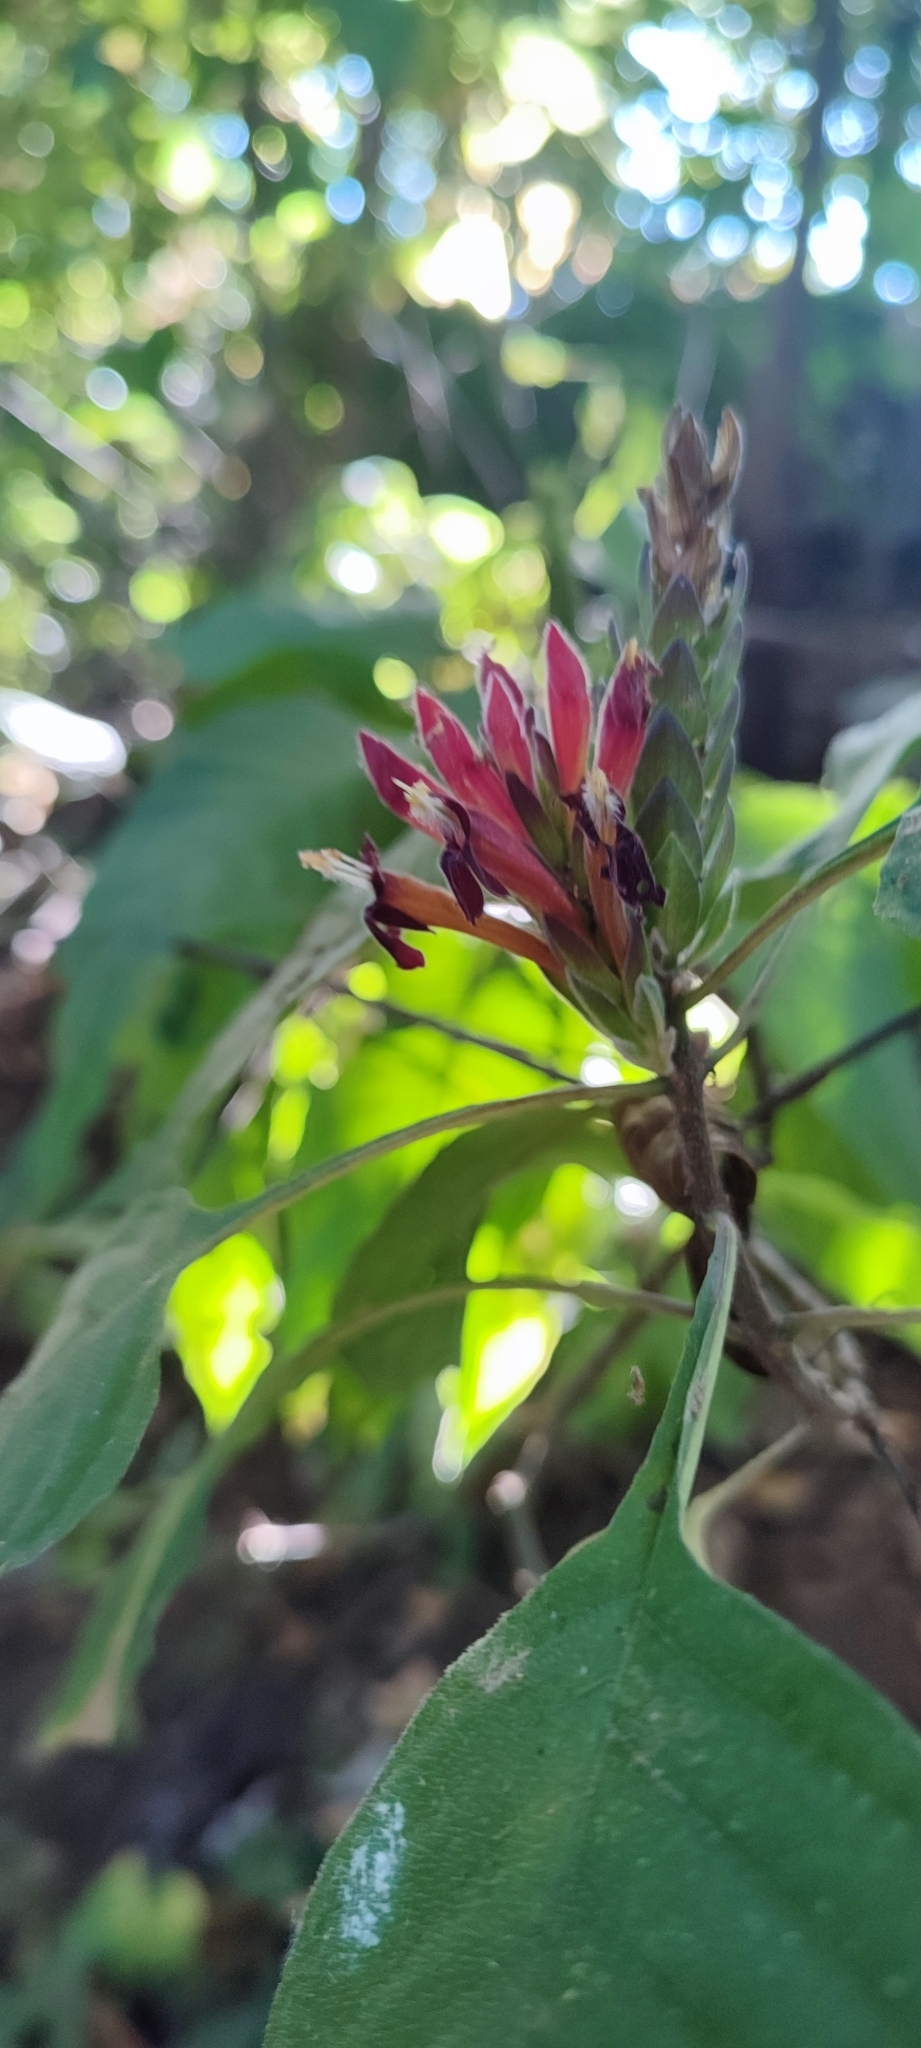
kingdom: Plantae
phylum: Tracheophyta
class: Magnoliopsida
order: Lamiales
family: Acanthaceae
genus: Aphelandra
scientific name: Aphelandra madrensis
